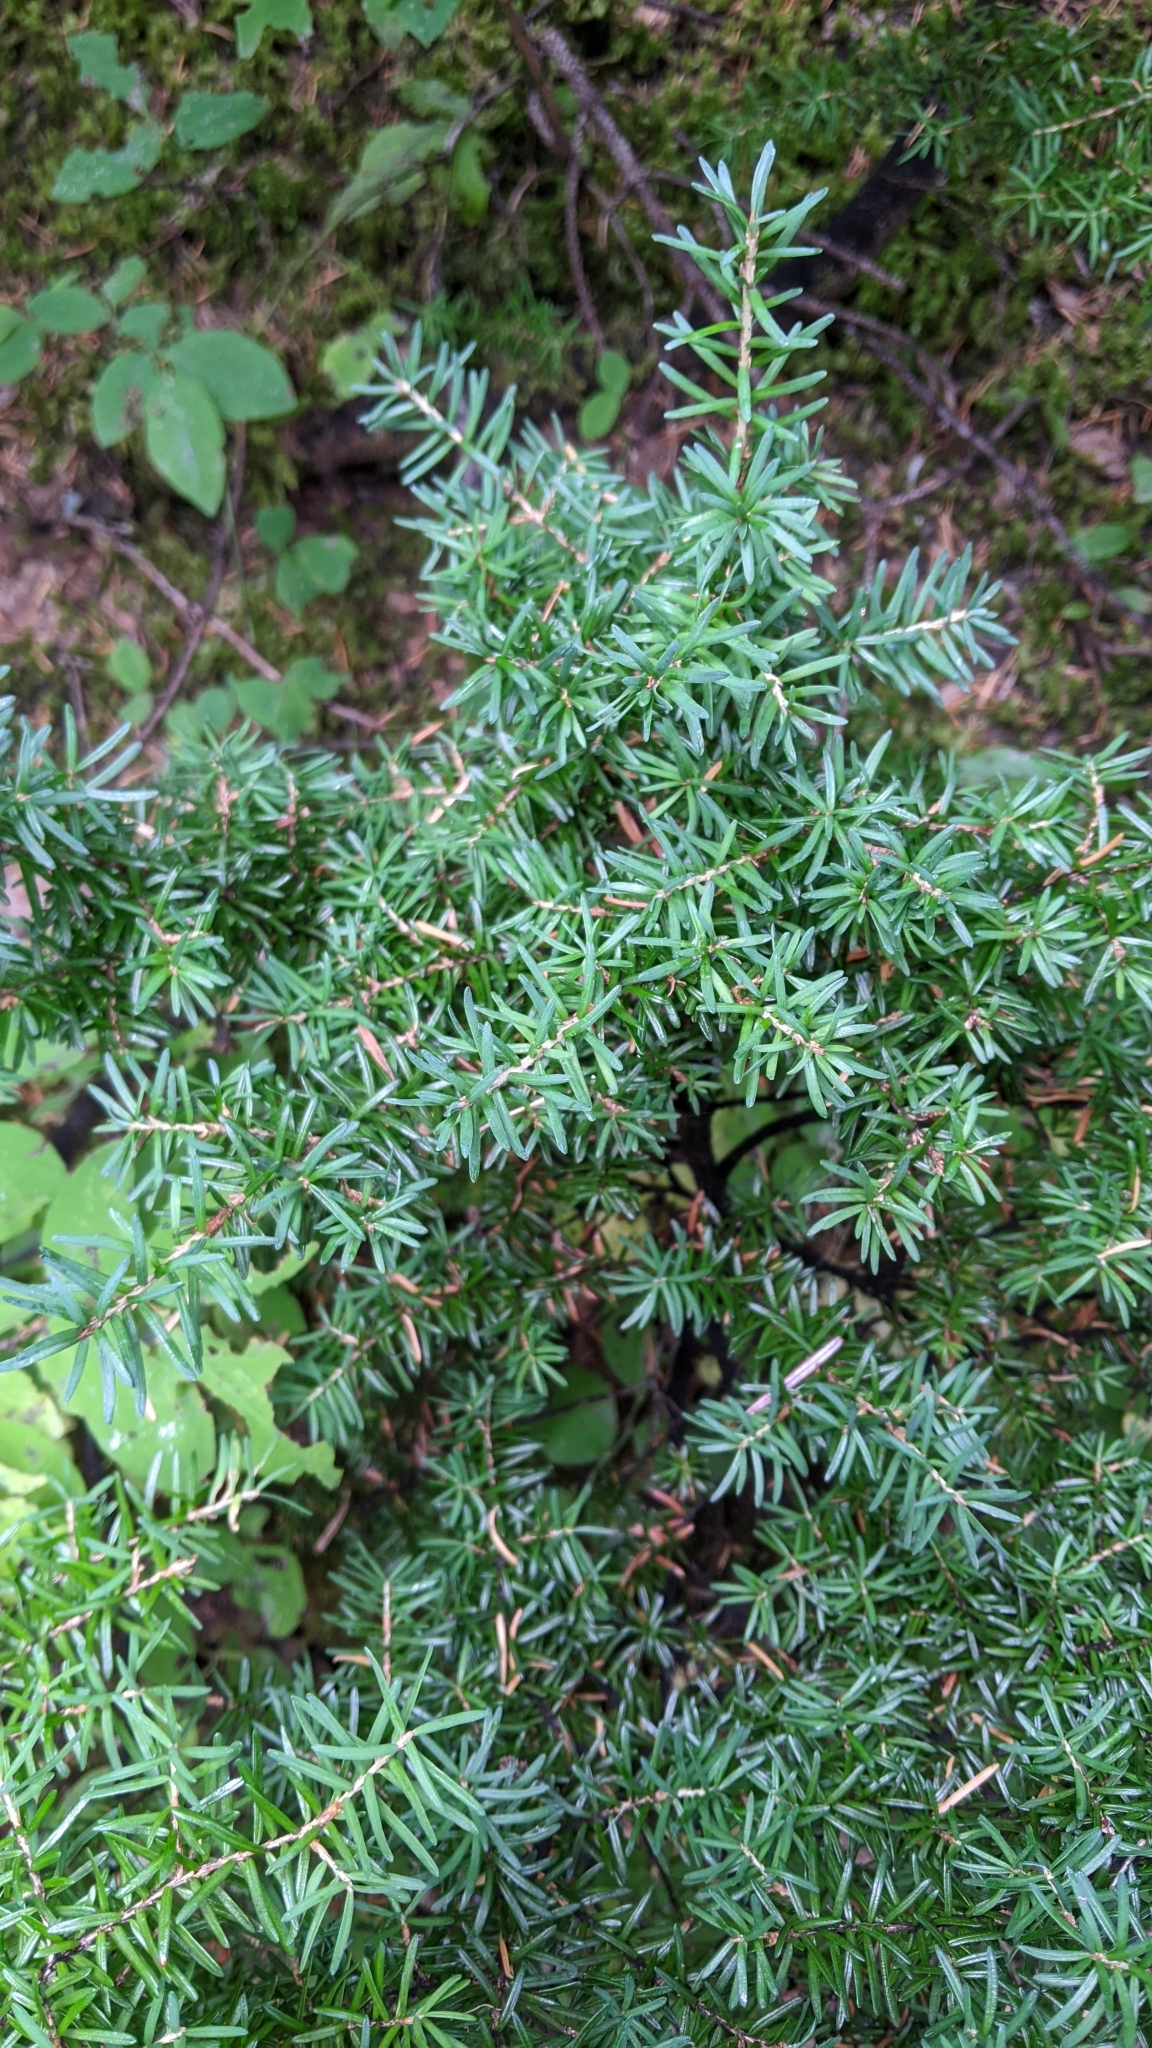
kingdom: Plantae
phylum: Tracheophyta
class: Pinopsida
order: Pinales
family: Pinaceae
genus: Tsuga
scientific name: Tsuga mertensiana
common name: Mountain hemlock
